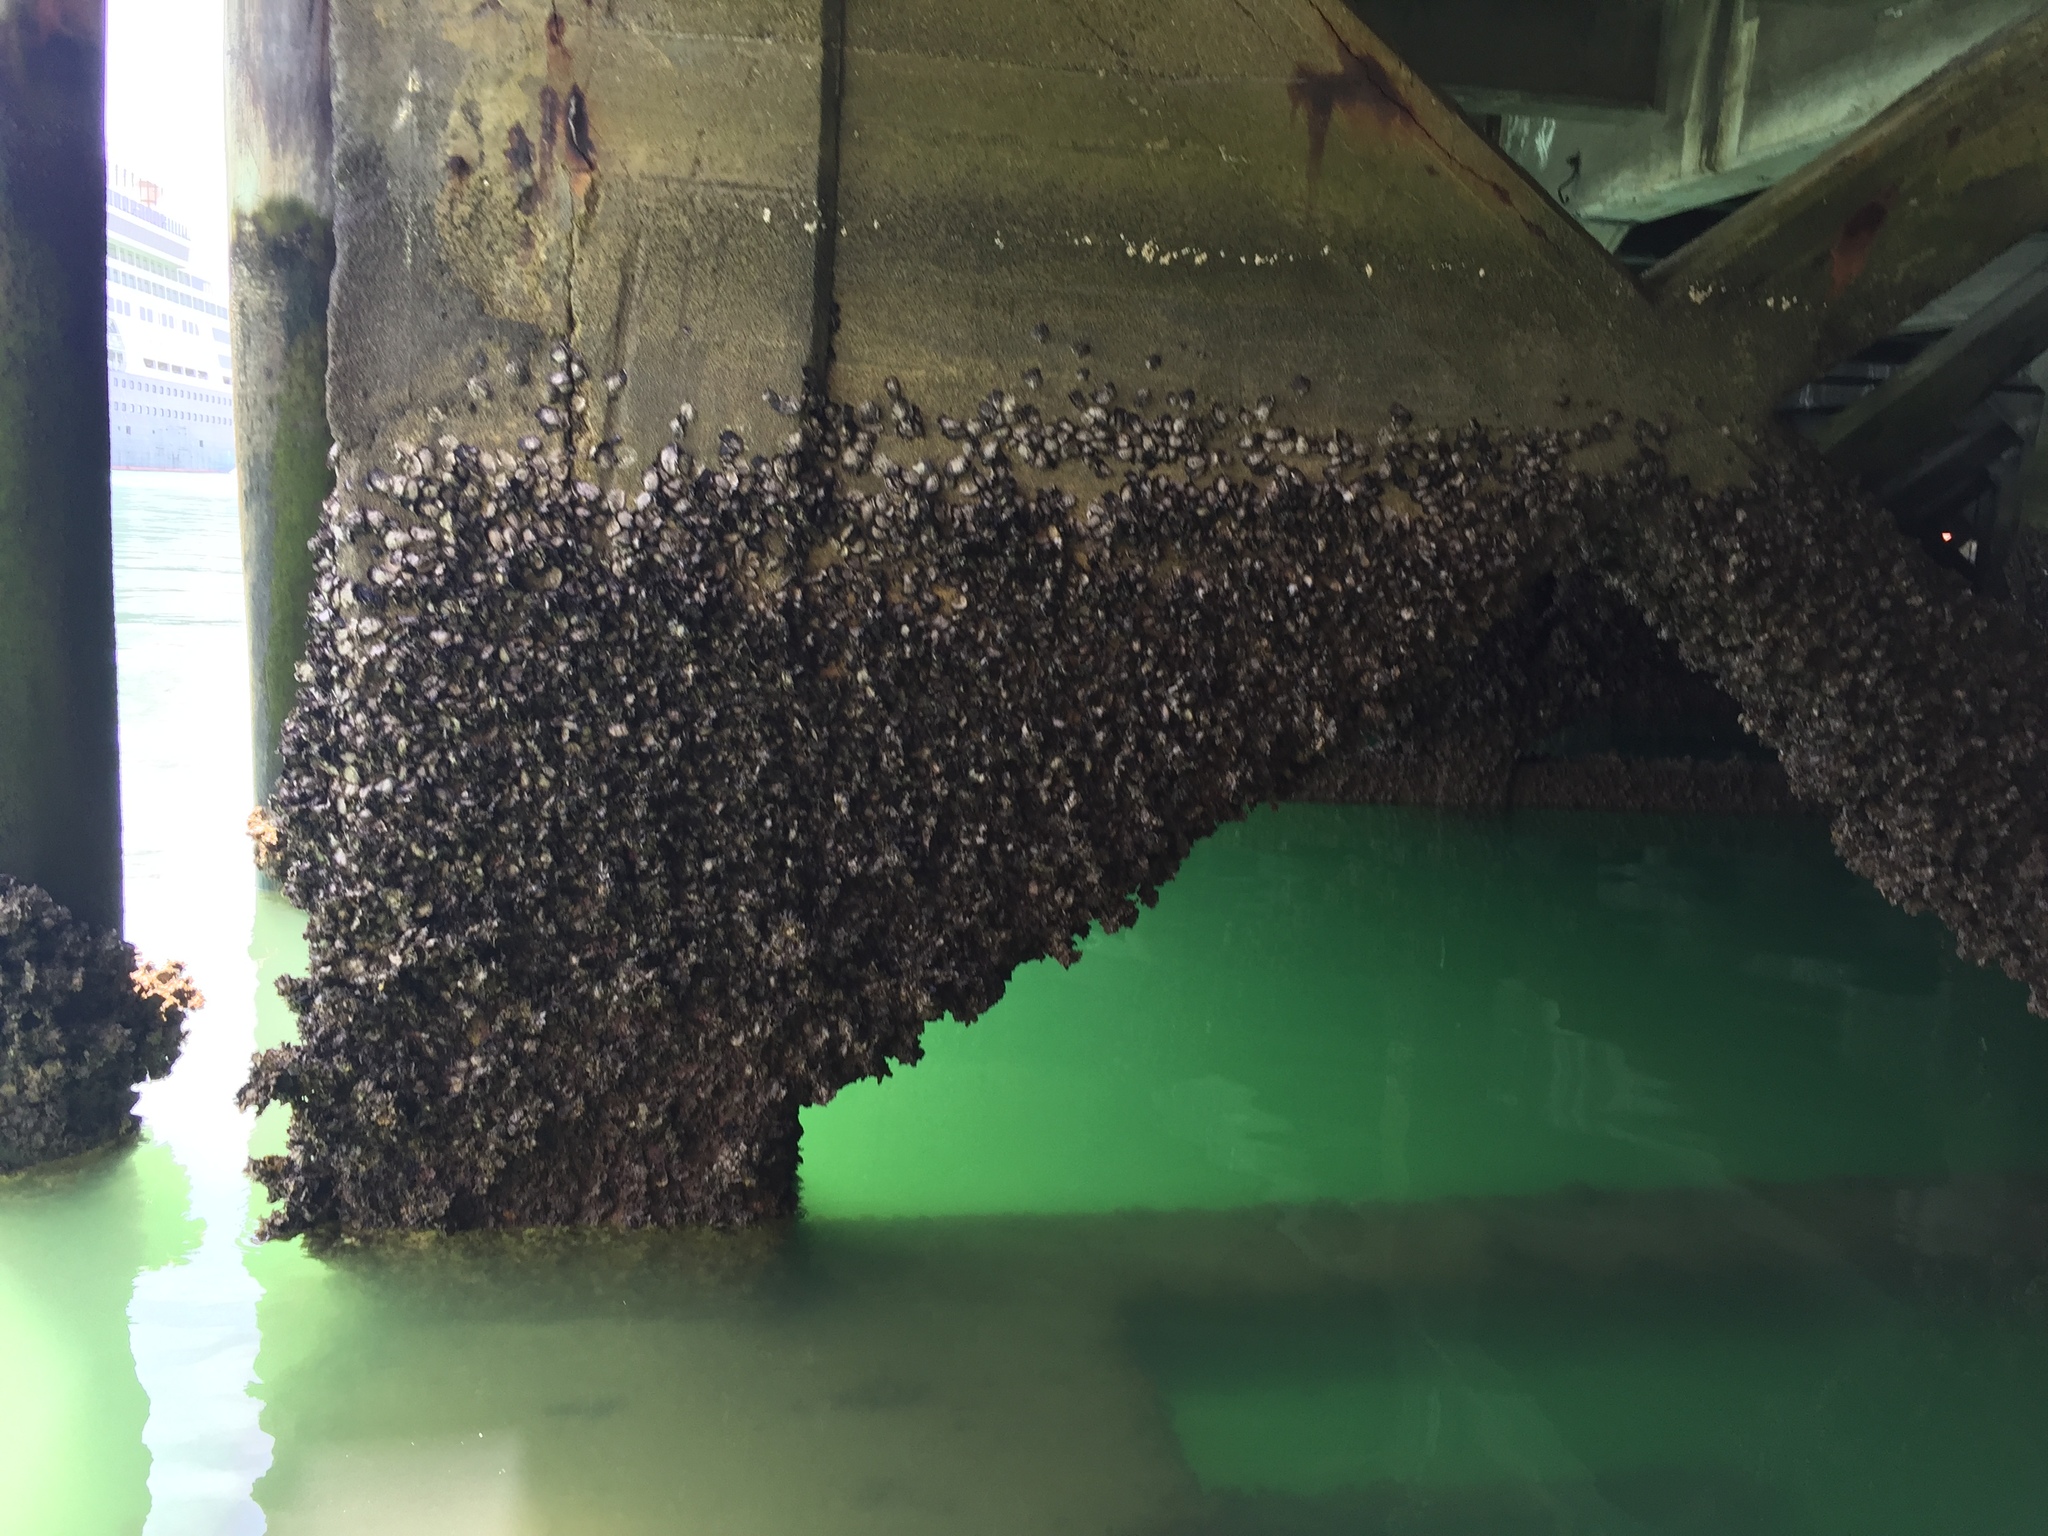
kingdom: Animalia
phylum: Mollusca
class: Bivalvia
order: Ostreida
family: Ostreidae
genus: Saccostrea
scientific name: Saccostrea glomerata
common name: Sydney cupped oyster
